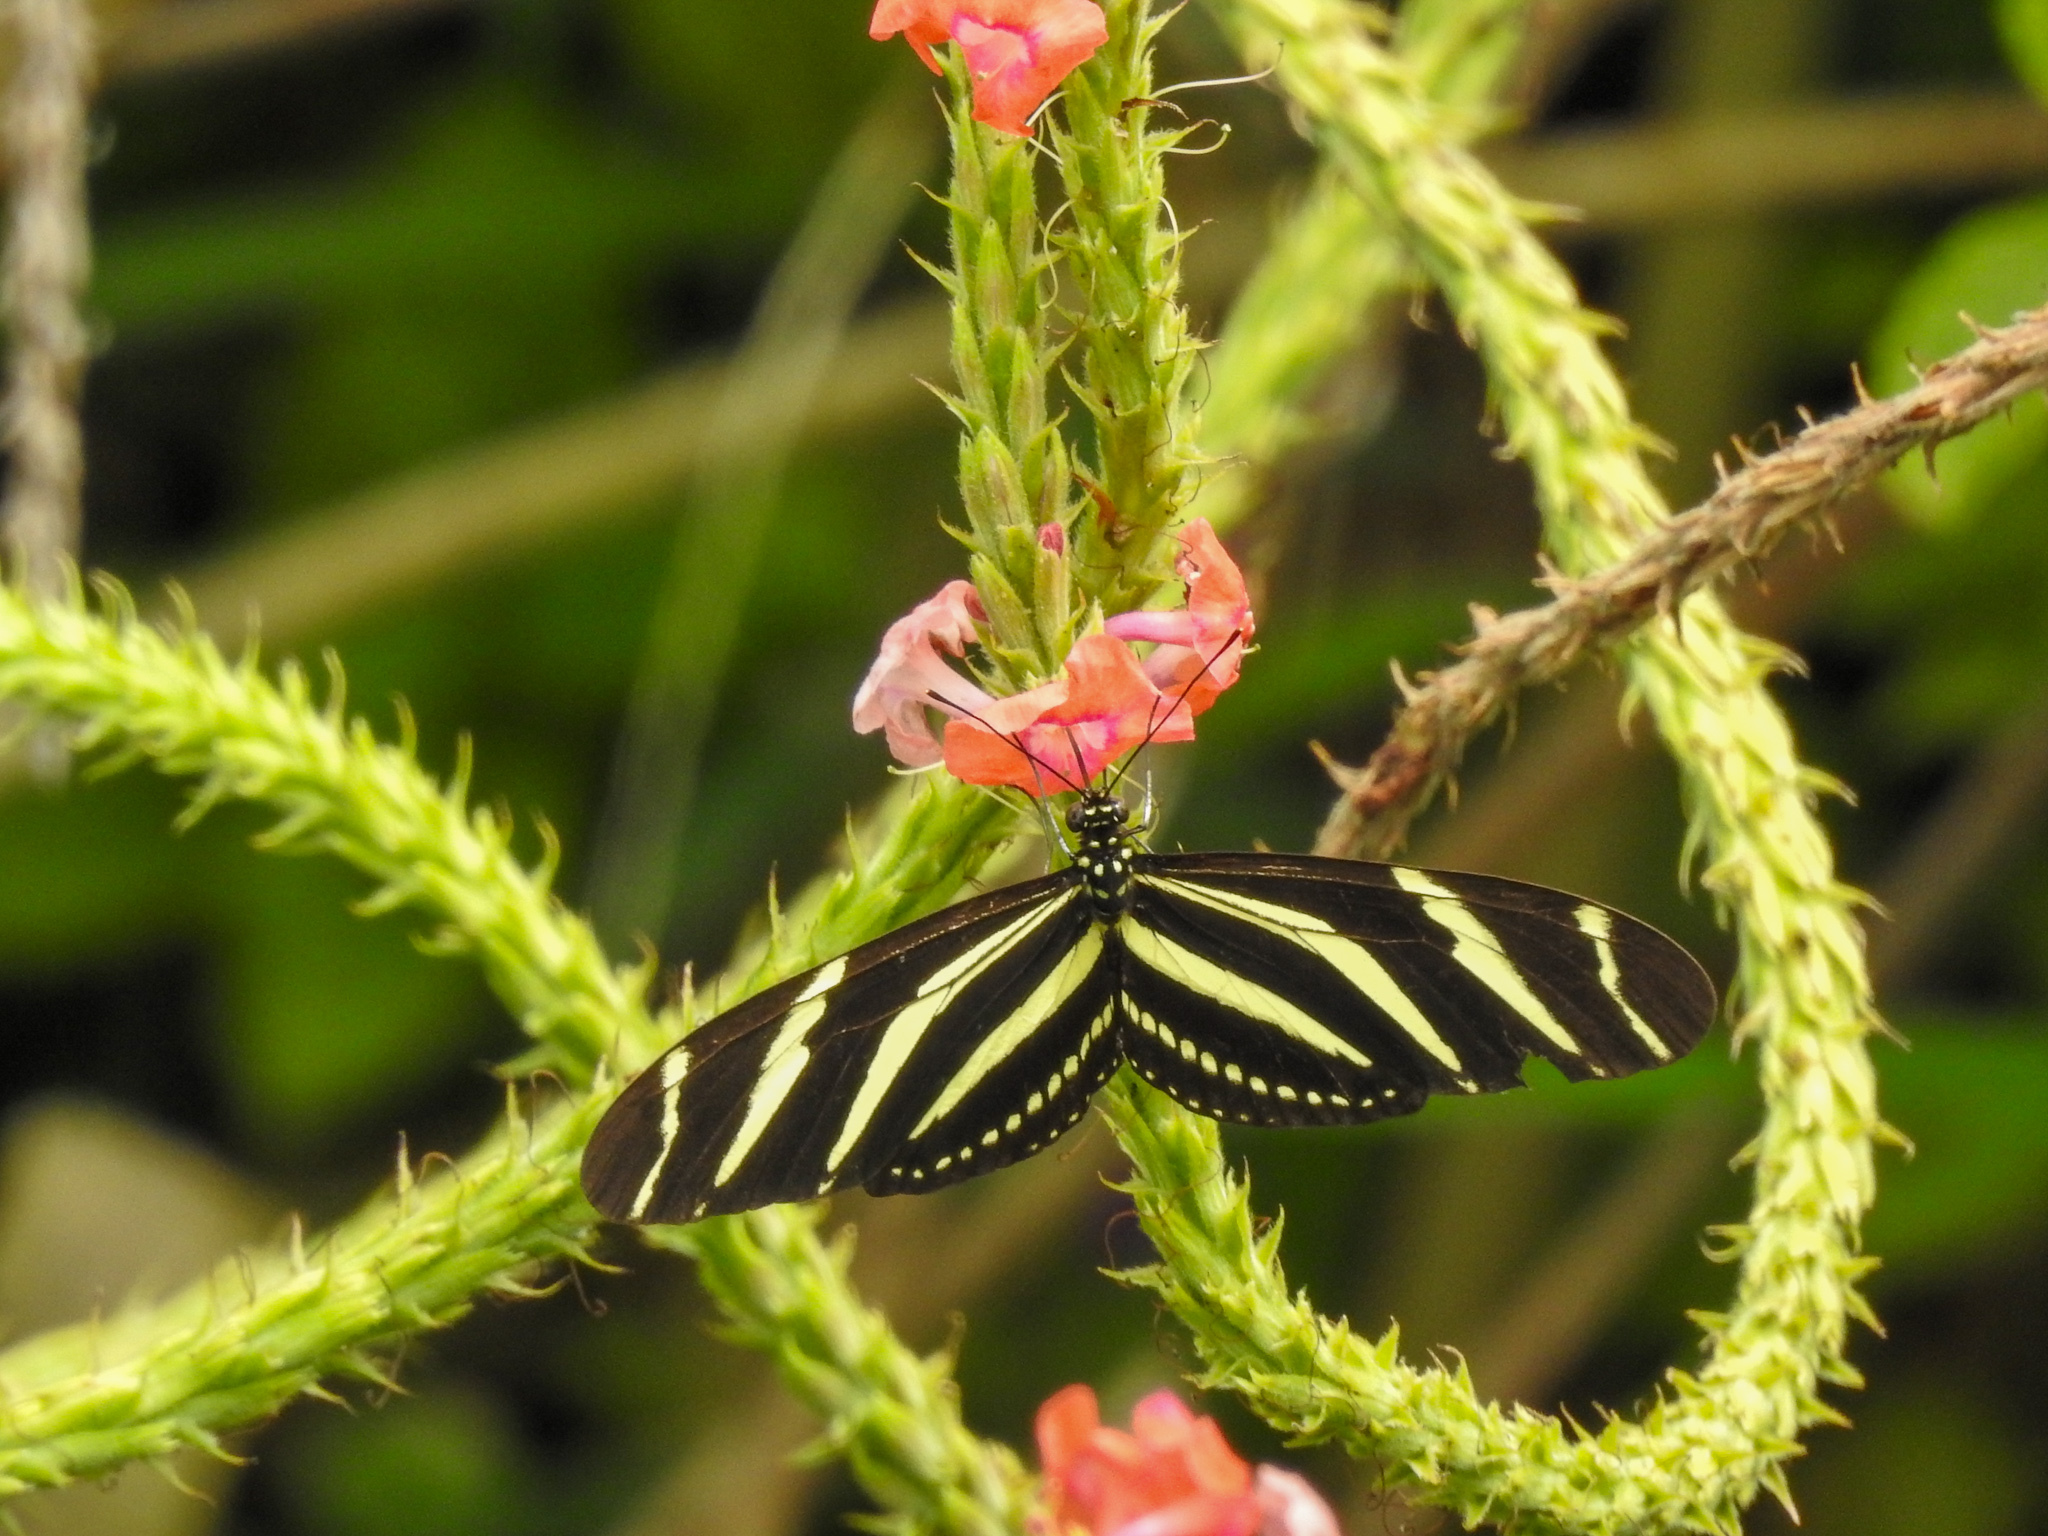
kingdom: Animalia
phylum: Arthropoda
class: Insecta
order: Lepidoptera
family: Nymphalidae
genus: Heliconius
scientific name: Heliconius charithonia
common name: Zebra long wing
